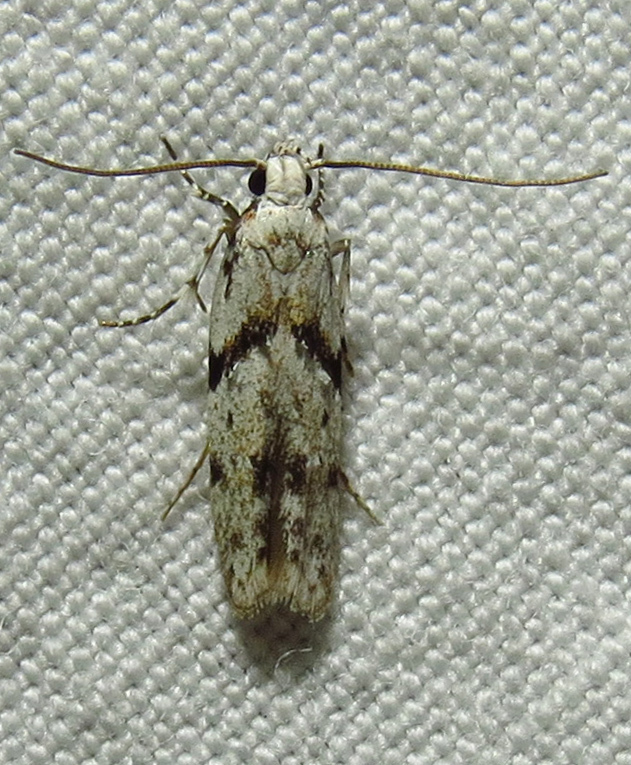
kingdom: Animalia
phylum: Arthropoda
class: Insecta
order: Lepidoptera
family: Gelechiidae
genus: Arogalea
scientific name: Arogalea cristifasciella
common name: White stripe-backed moth
